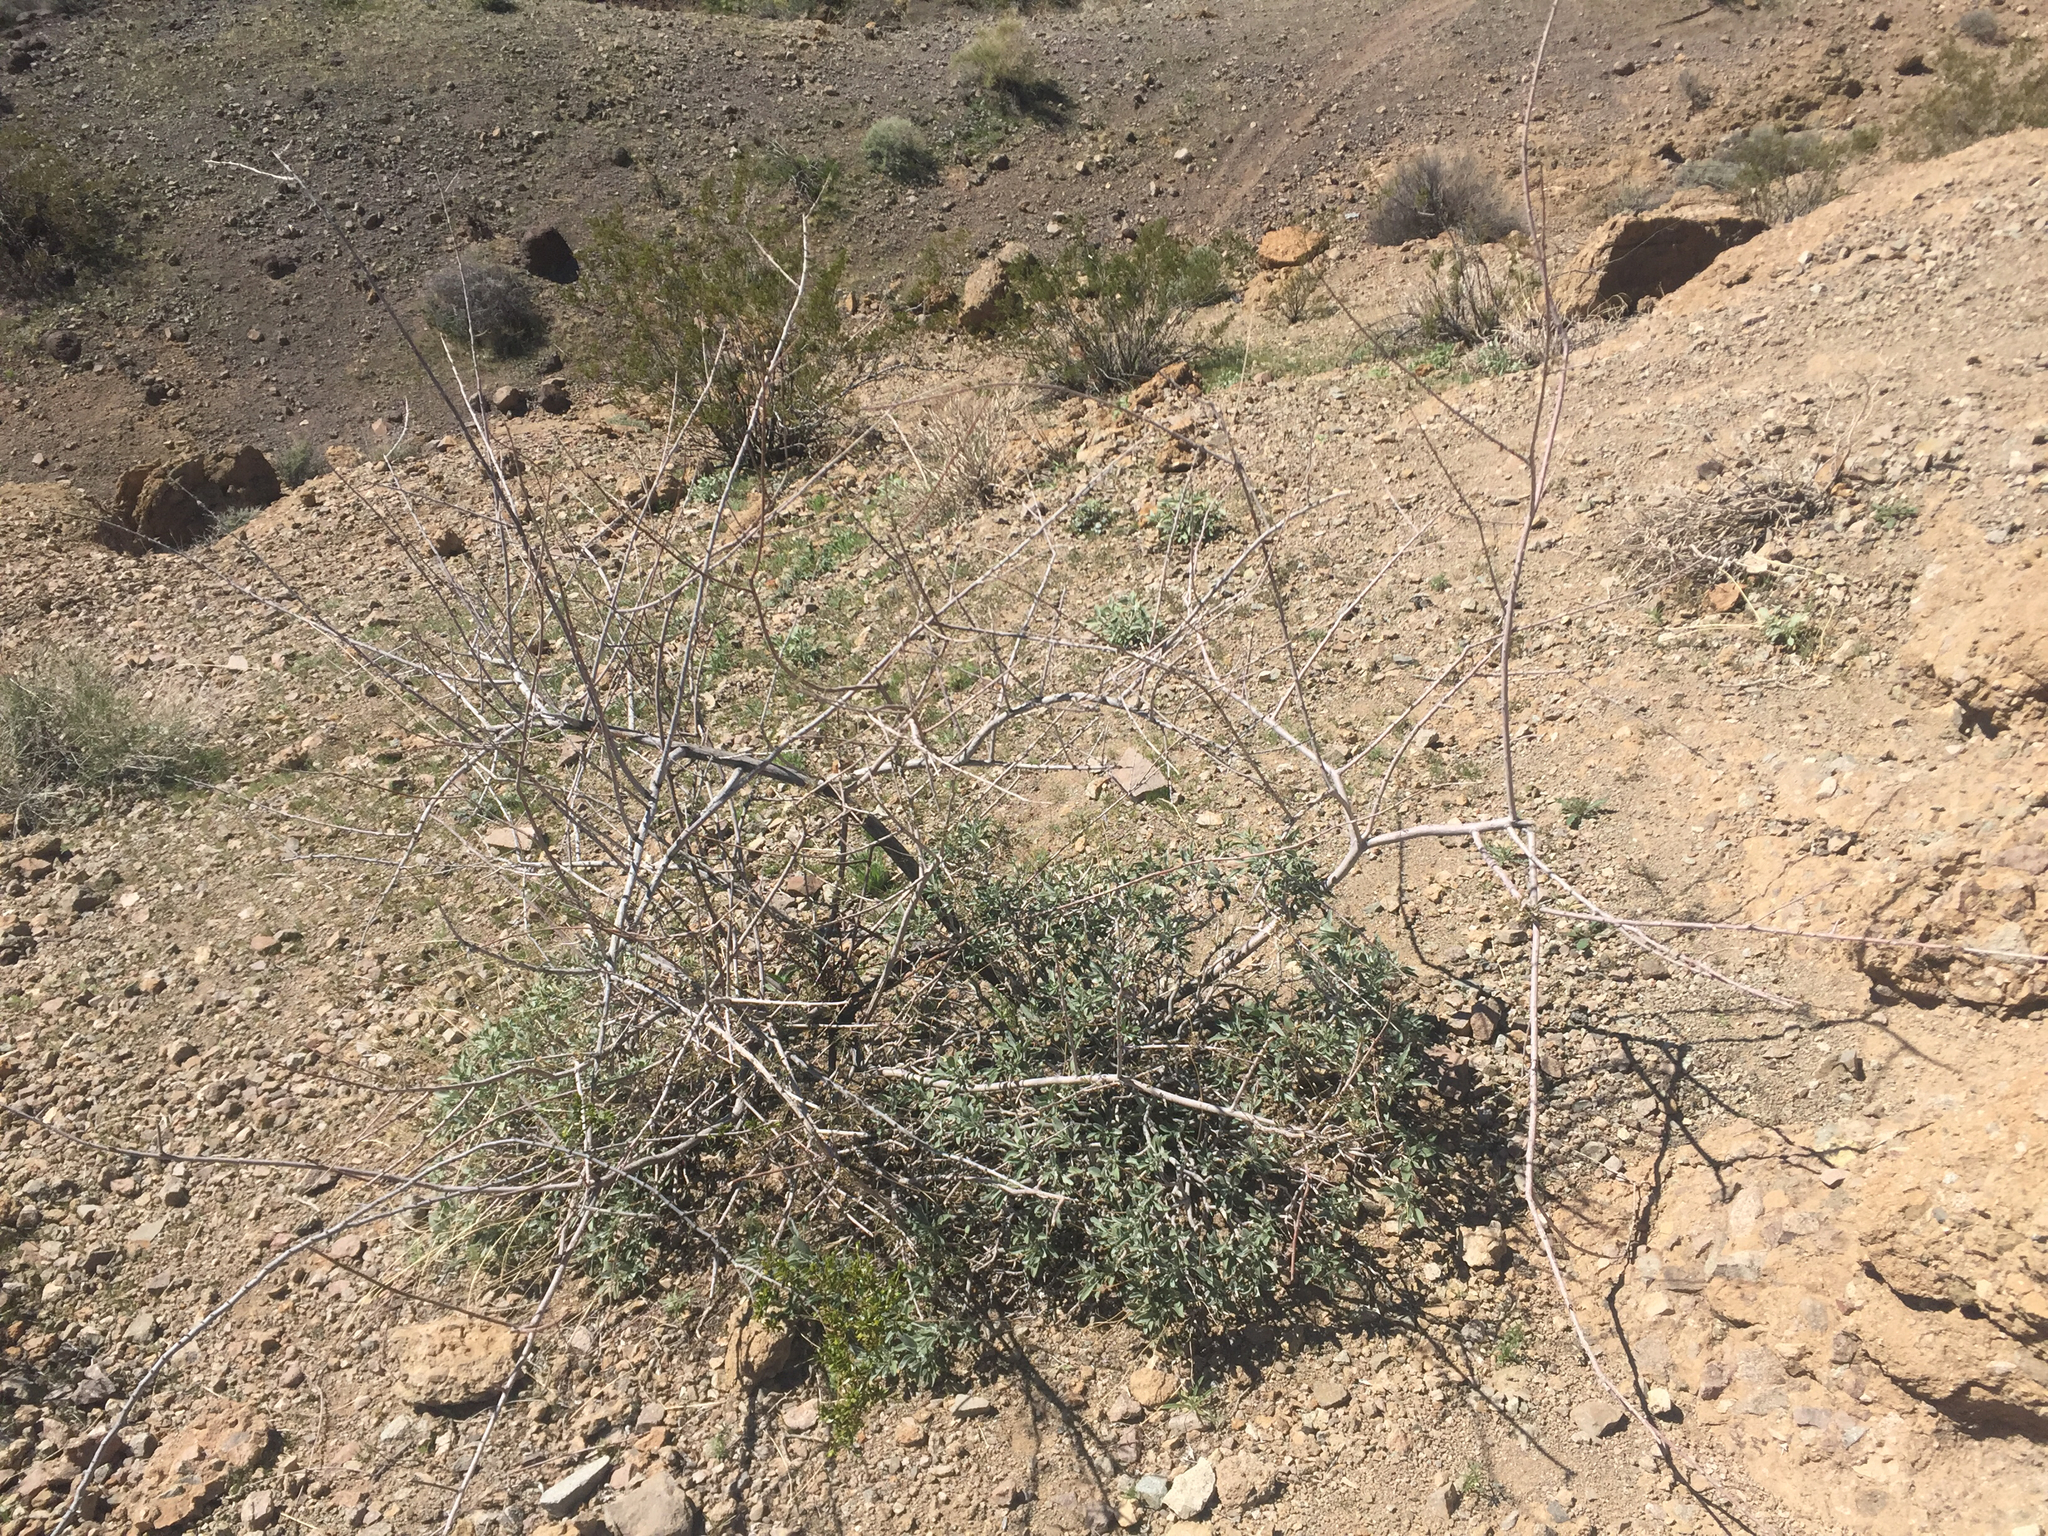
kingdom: Plantae
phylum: Tracheophyta
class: Magnoliopsida
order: Fabales
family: Fabaceae
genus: Senegalia
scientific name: Senegalia greggii
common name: Texas-mimosa
